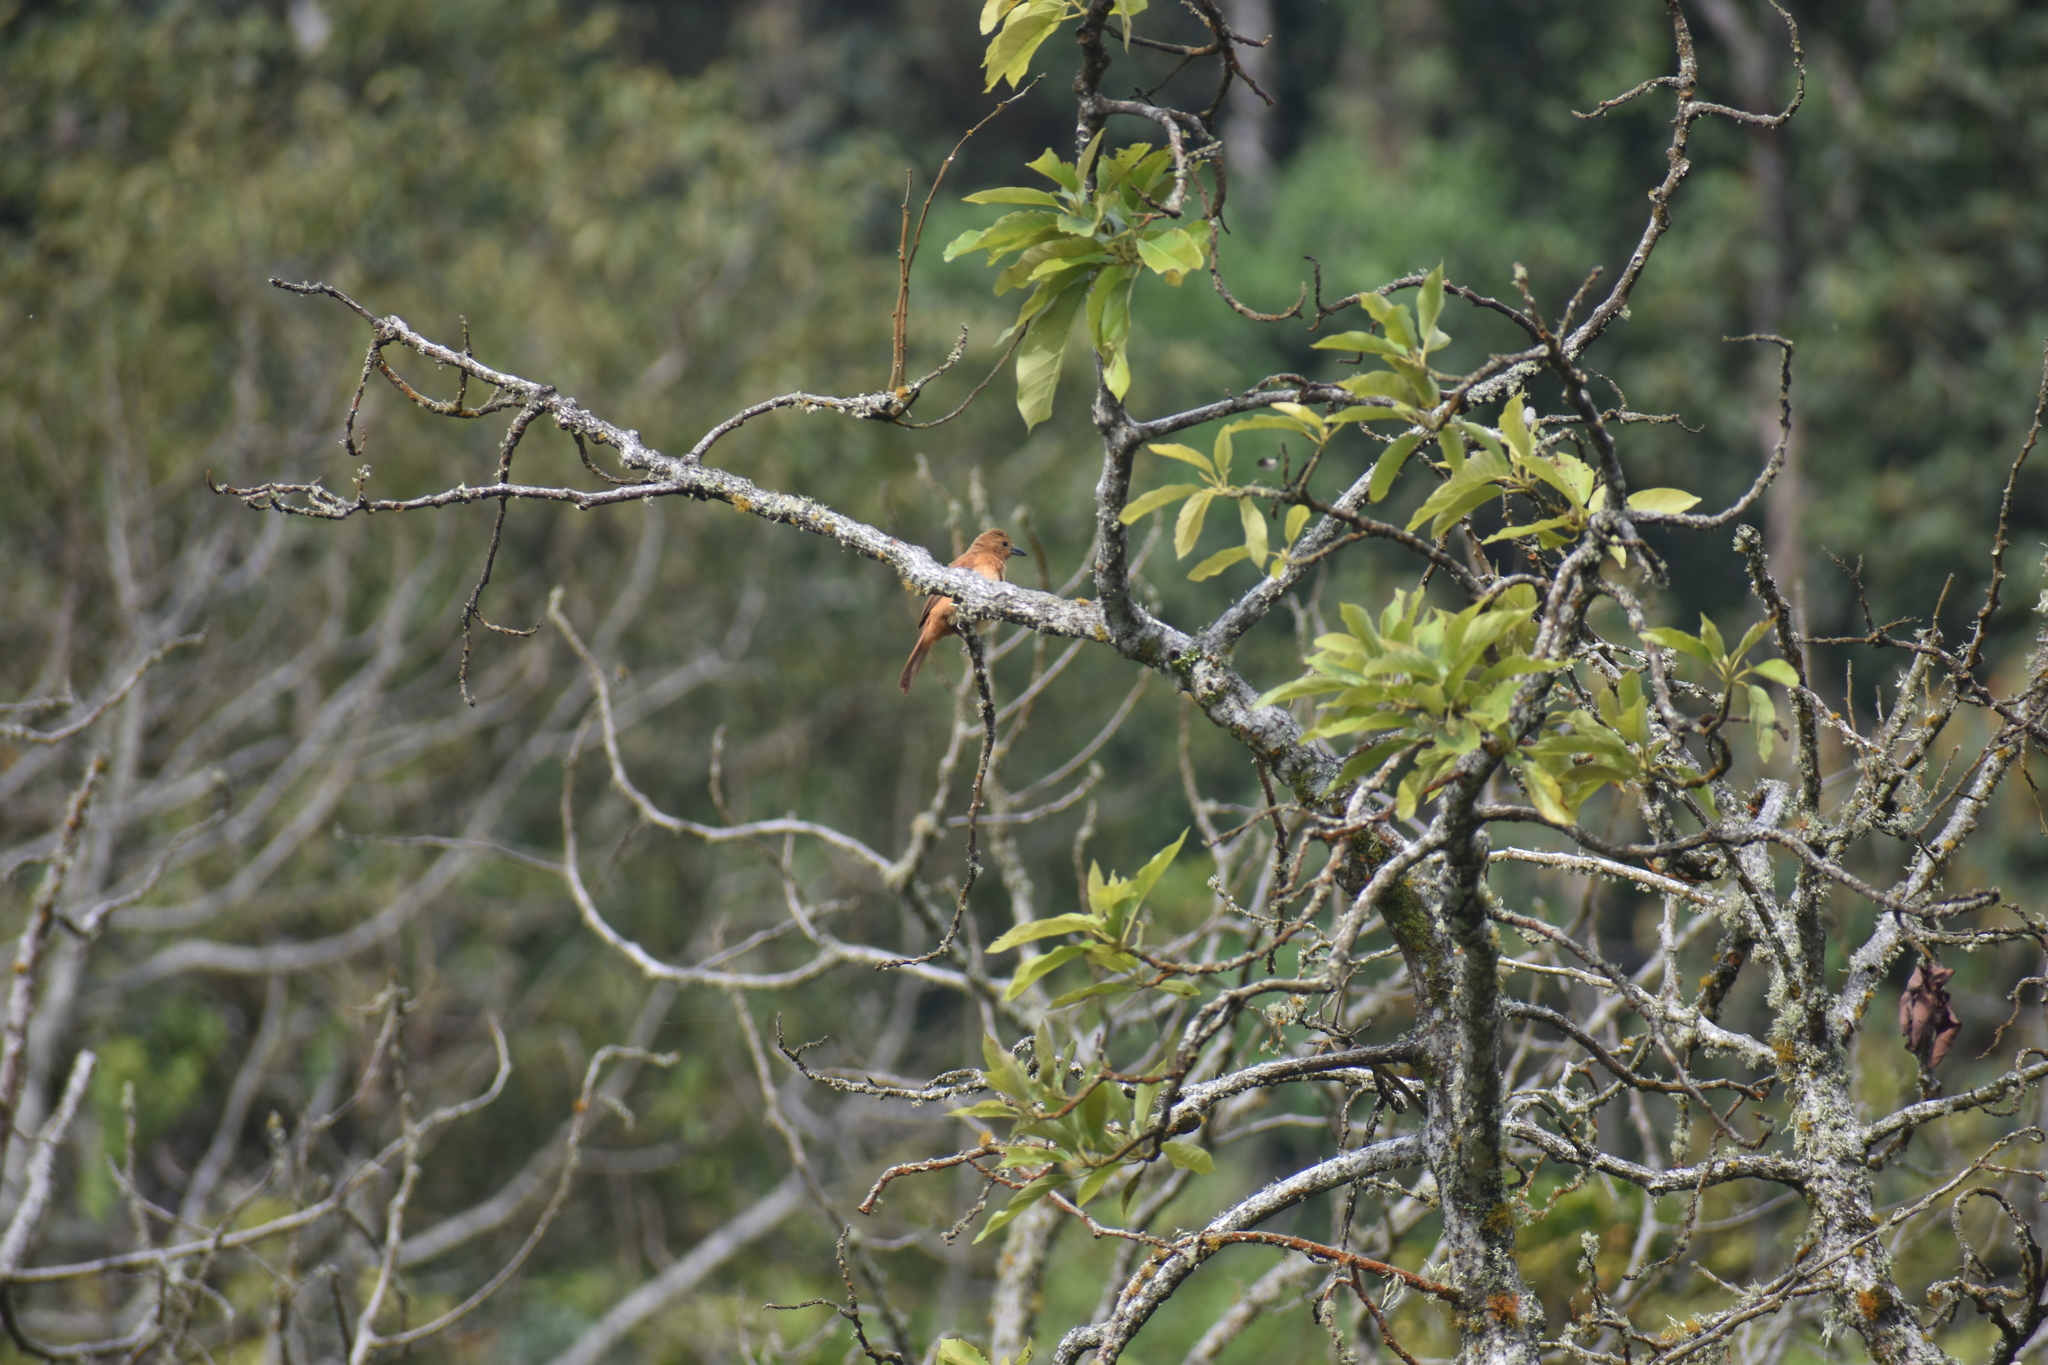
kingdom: Animalia
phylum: Chordata
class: Aves
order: Passeriformes
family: Thraupidae
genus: Tachyphonus
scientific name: Tachyphonus rufus
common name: White-lined tanager
